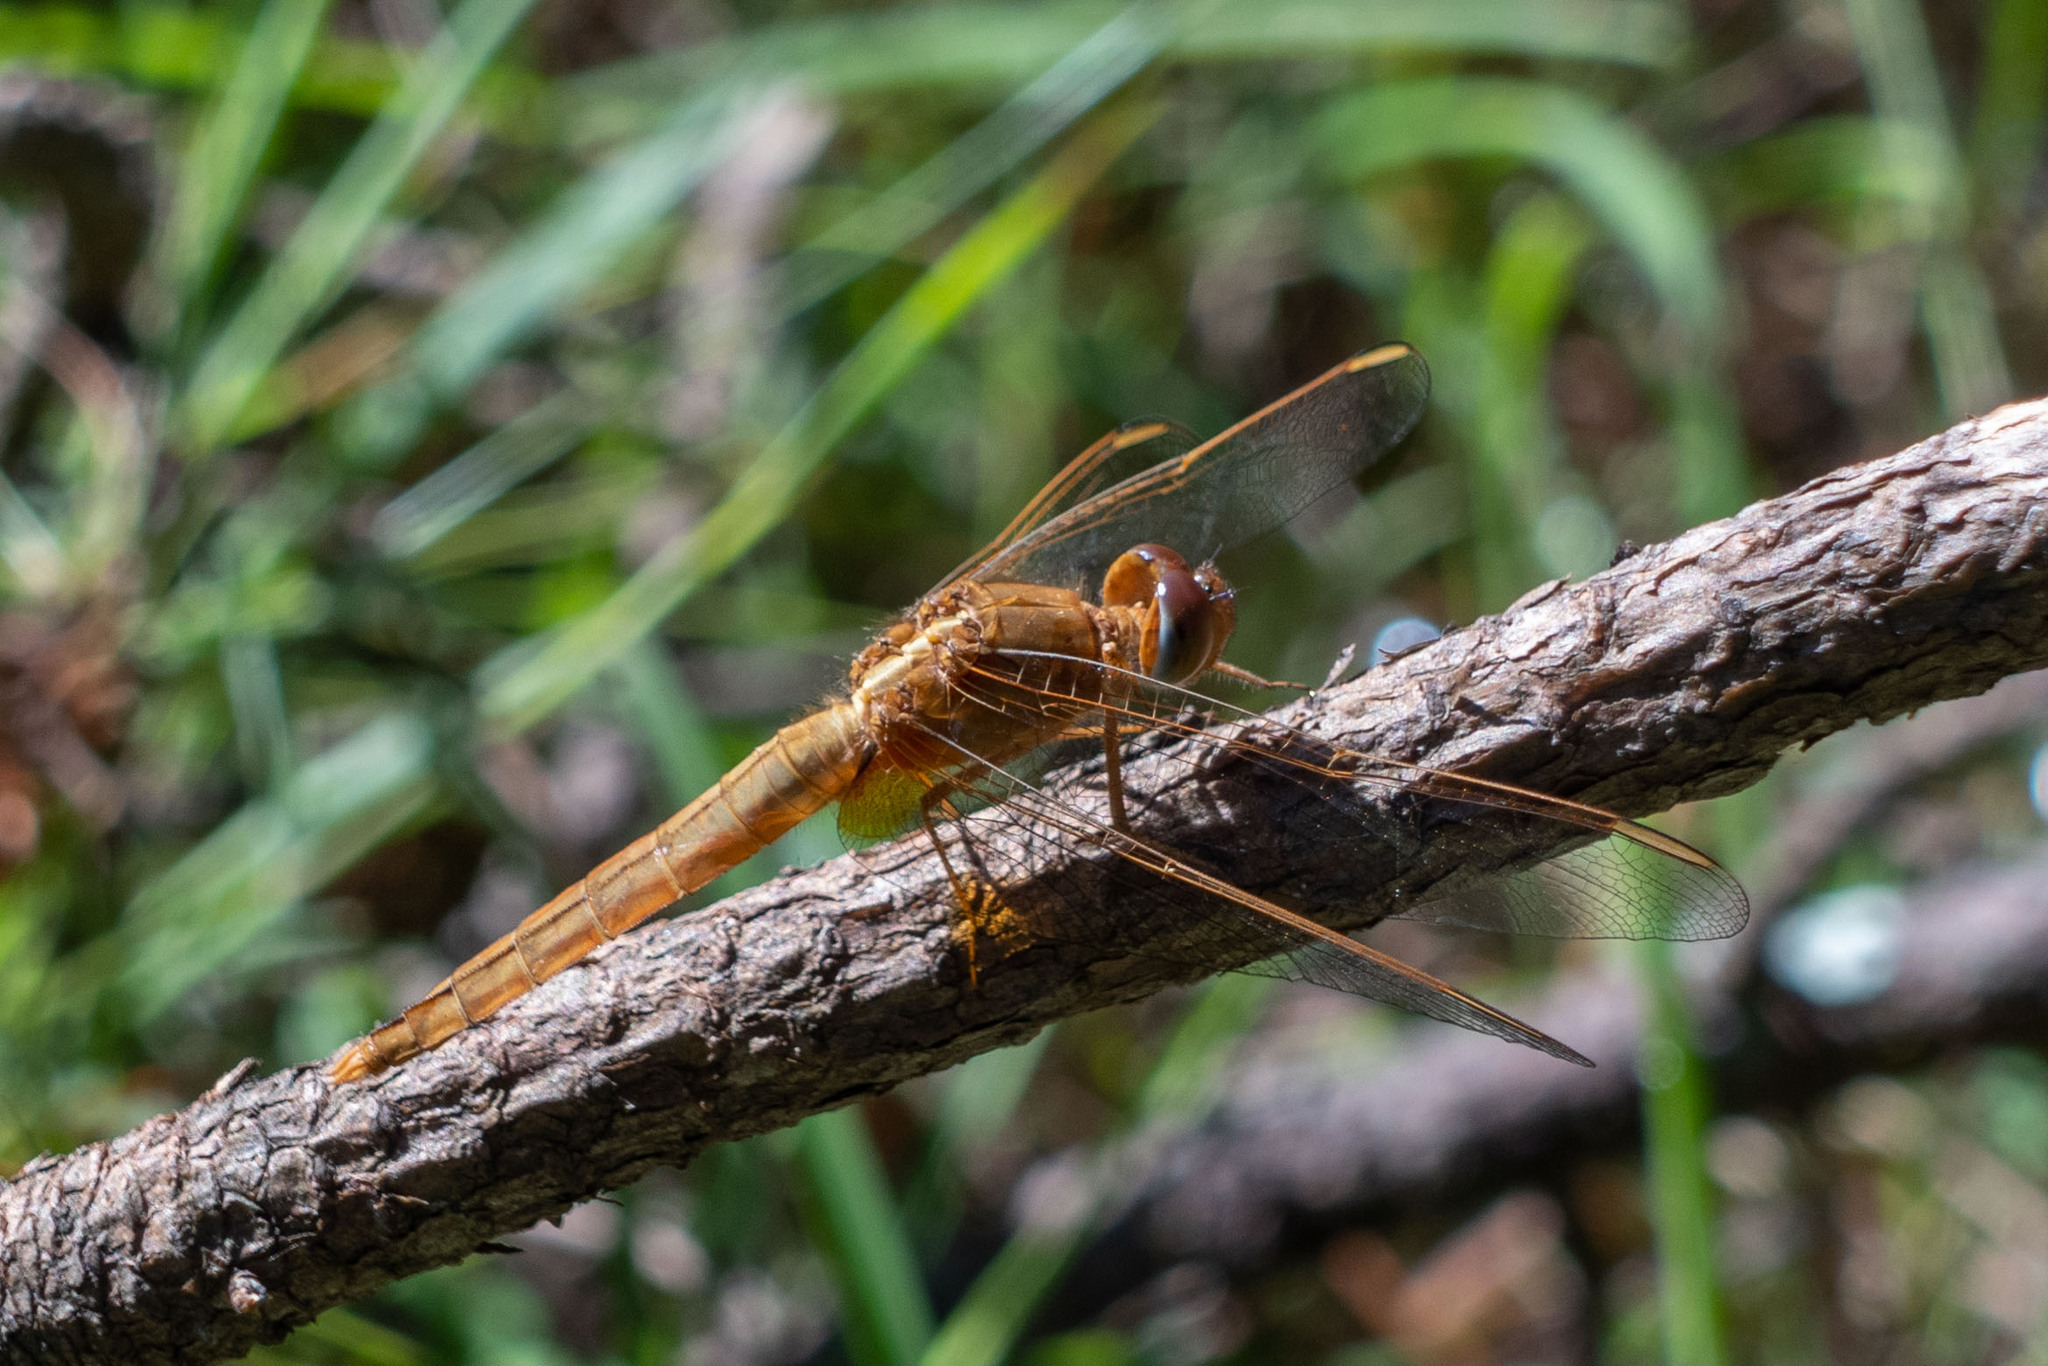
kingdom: Animalia
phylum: Arthropoda
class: Insecta
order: Odonata
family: Libellulidae
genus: Crocothemis
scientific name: Crocothemis servilia
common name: Scarlet skimmer
